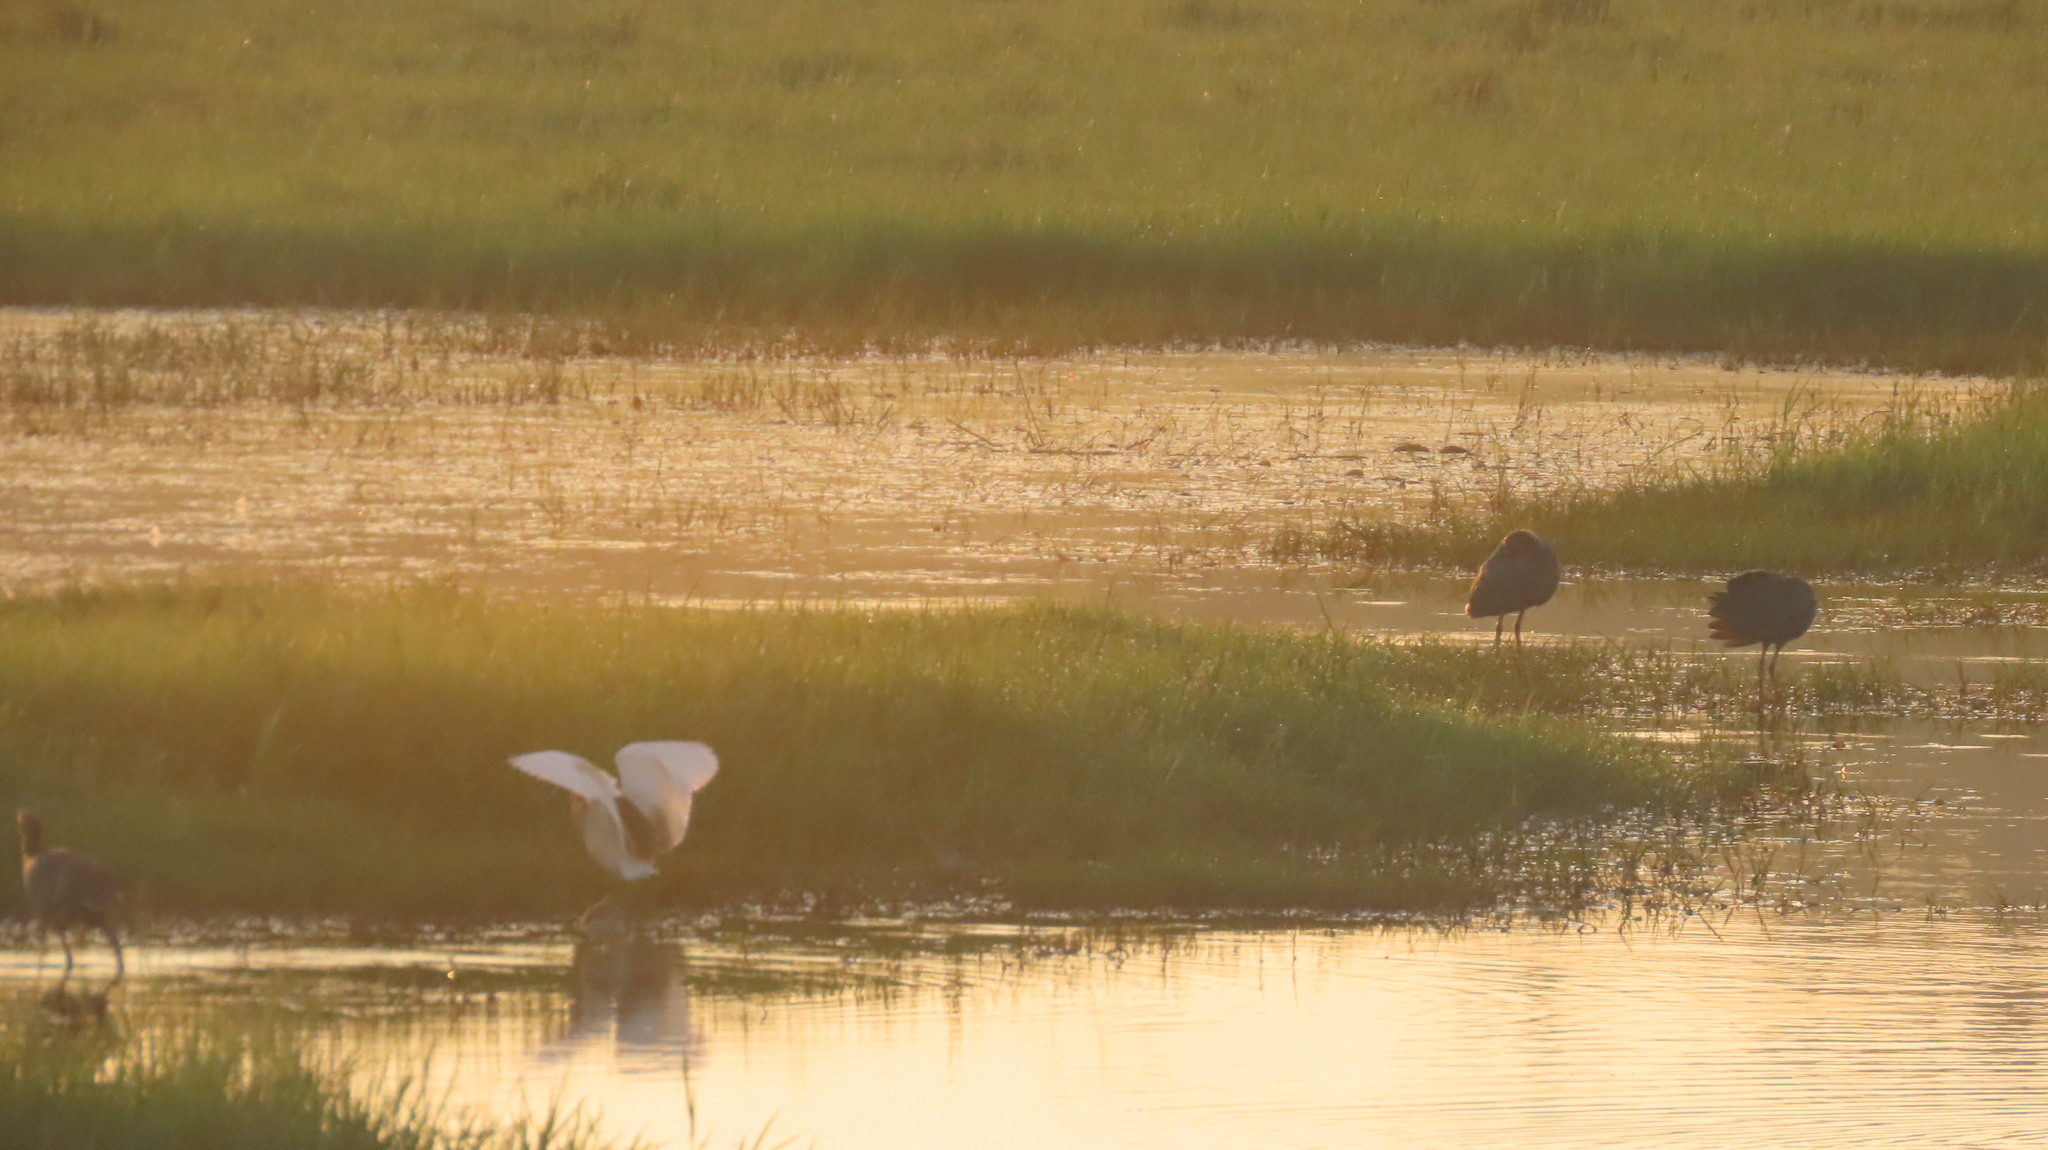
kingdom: Animalia
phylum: Chordata
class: Aves
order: Gruiformes
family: Rallidae
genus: Porphyrio
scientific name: Porphyrio porphyrio
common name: Purple swamphen
